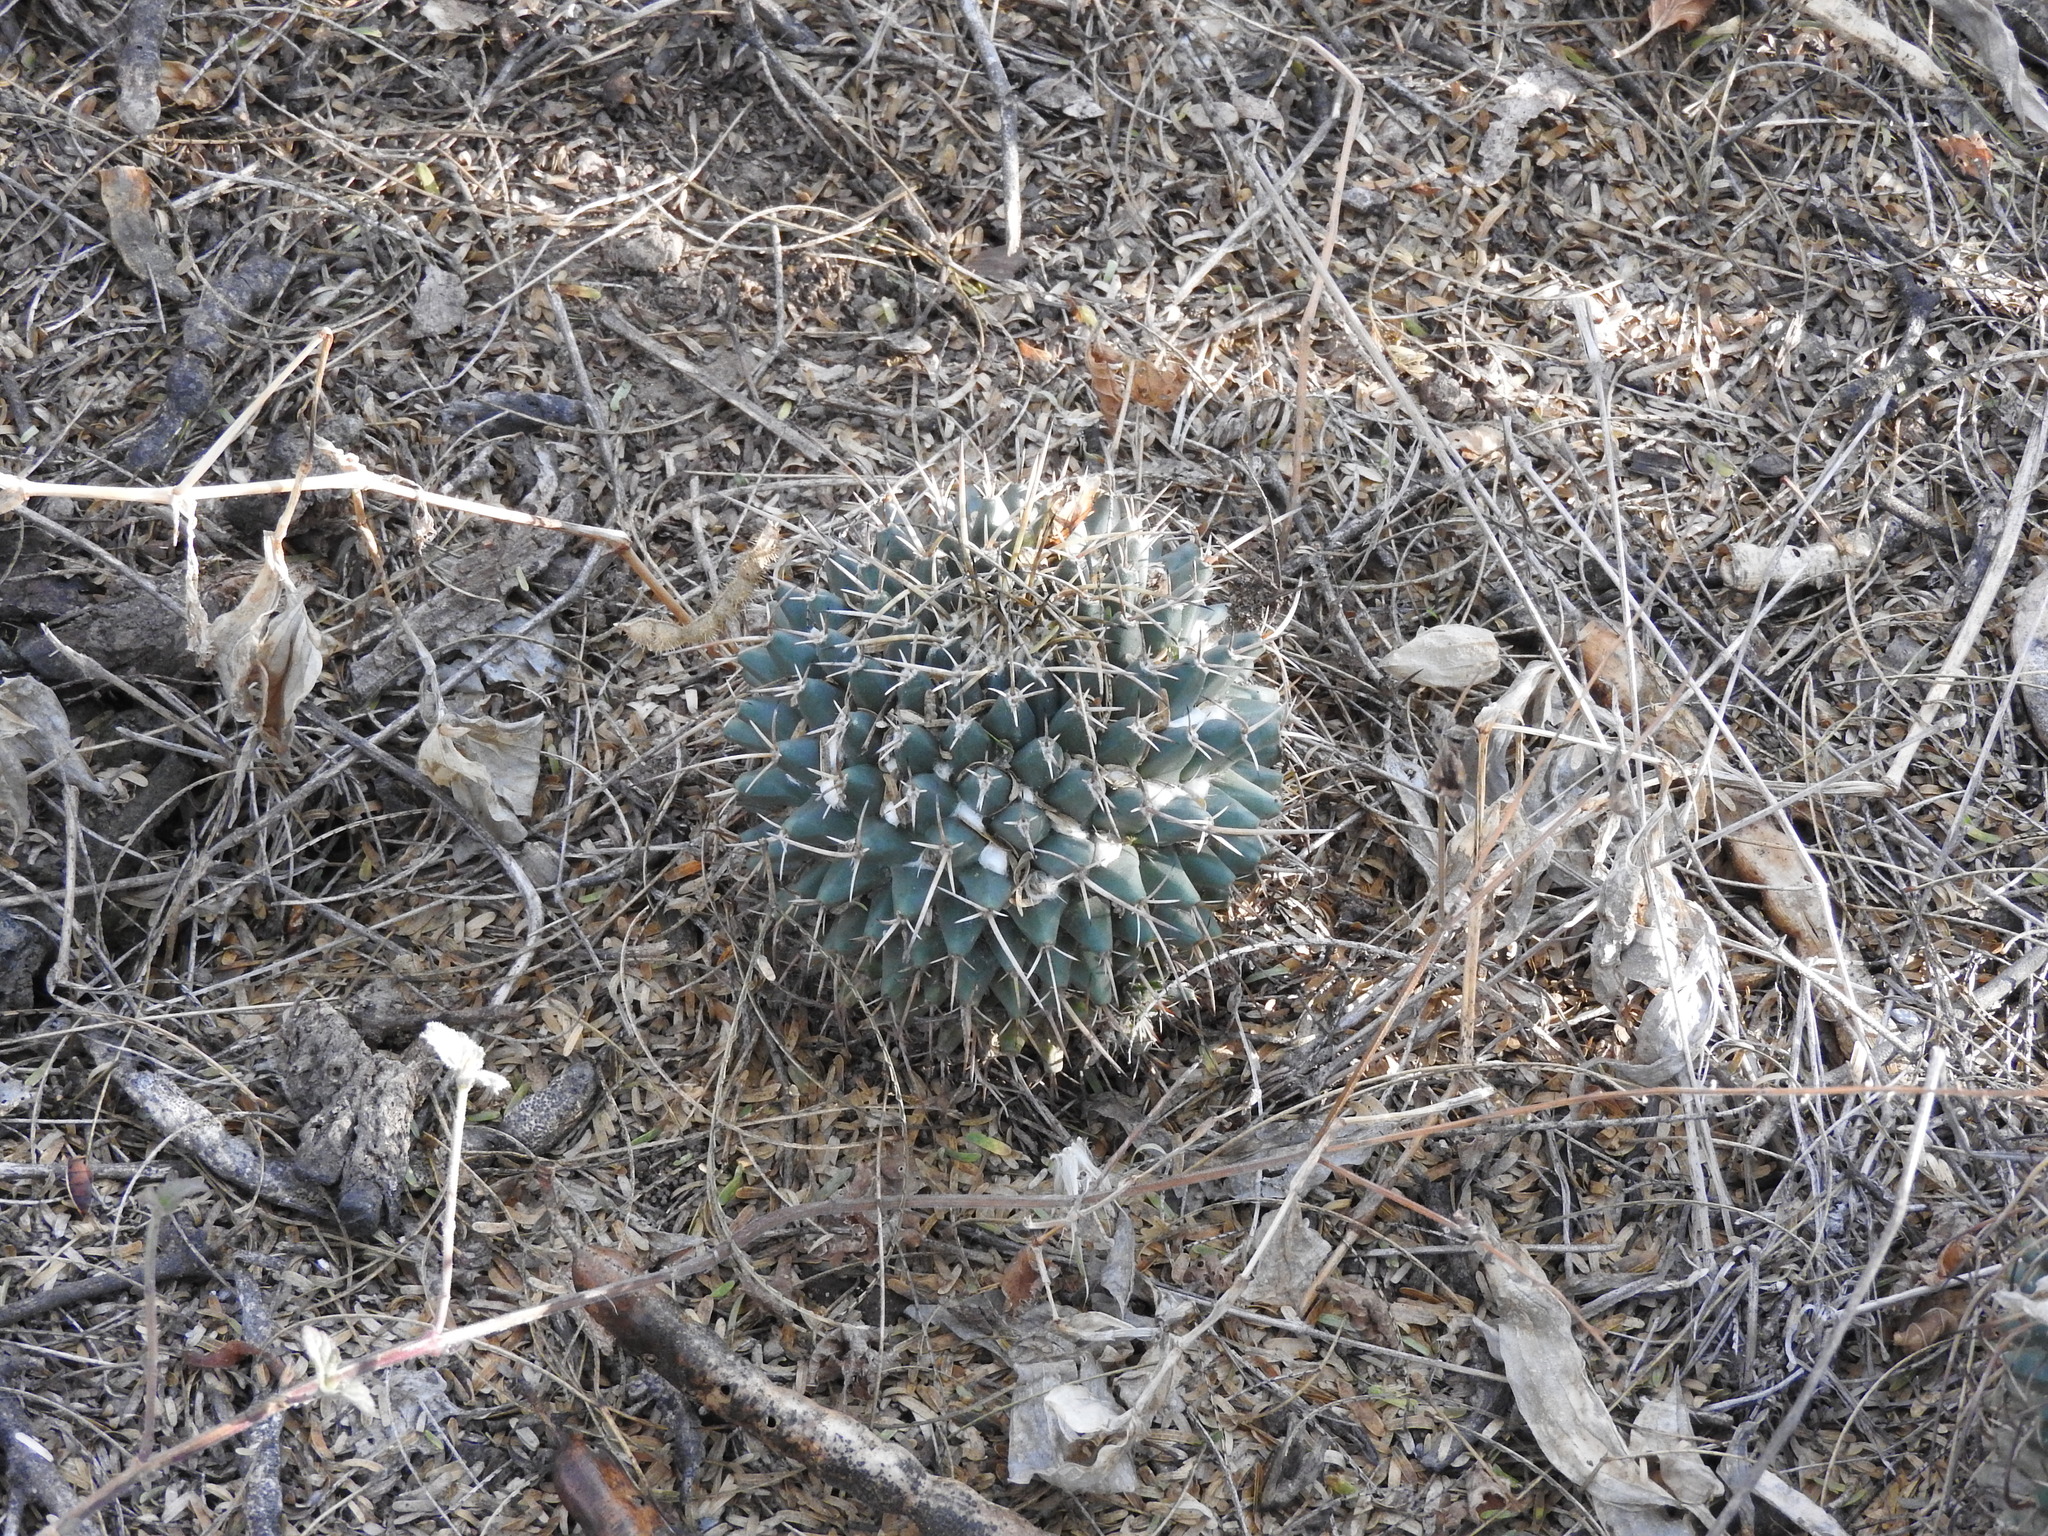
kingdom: Plantae
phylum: Tracheophyta
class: Magnoliopsida
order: Caryophyllales
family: Cactaceae
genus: Mammillaria
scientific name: Mammillaria magnimamma
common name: Mexican pincushion
